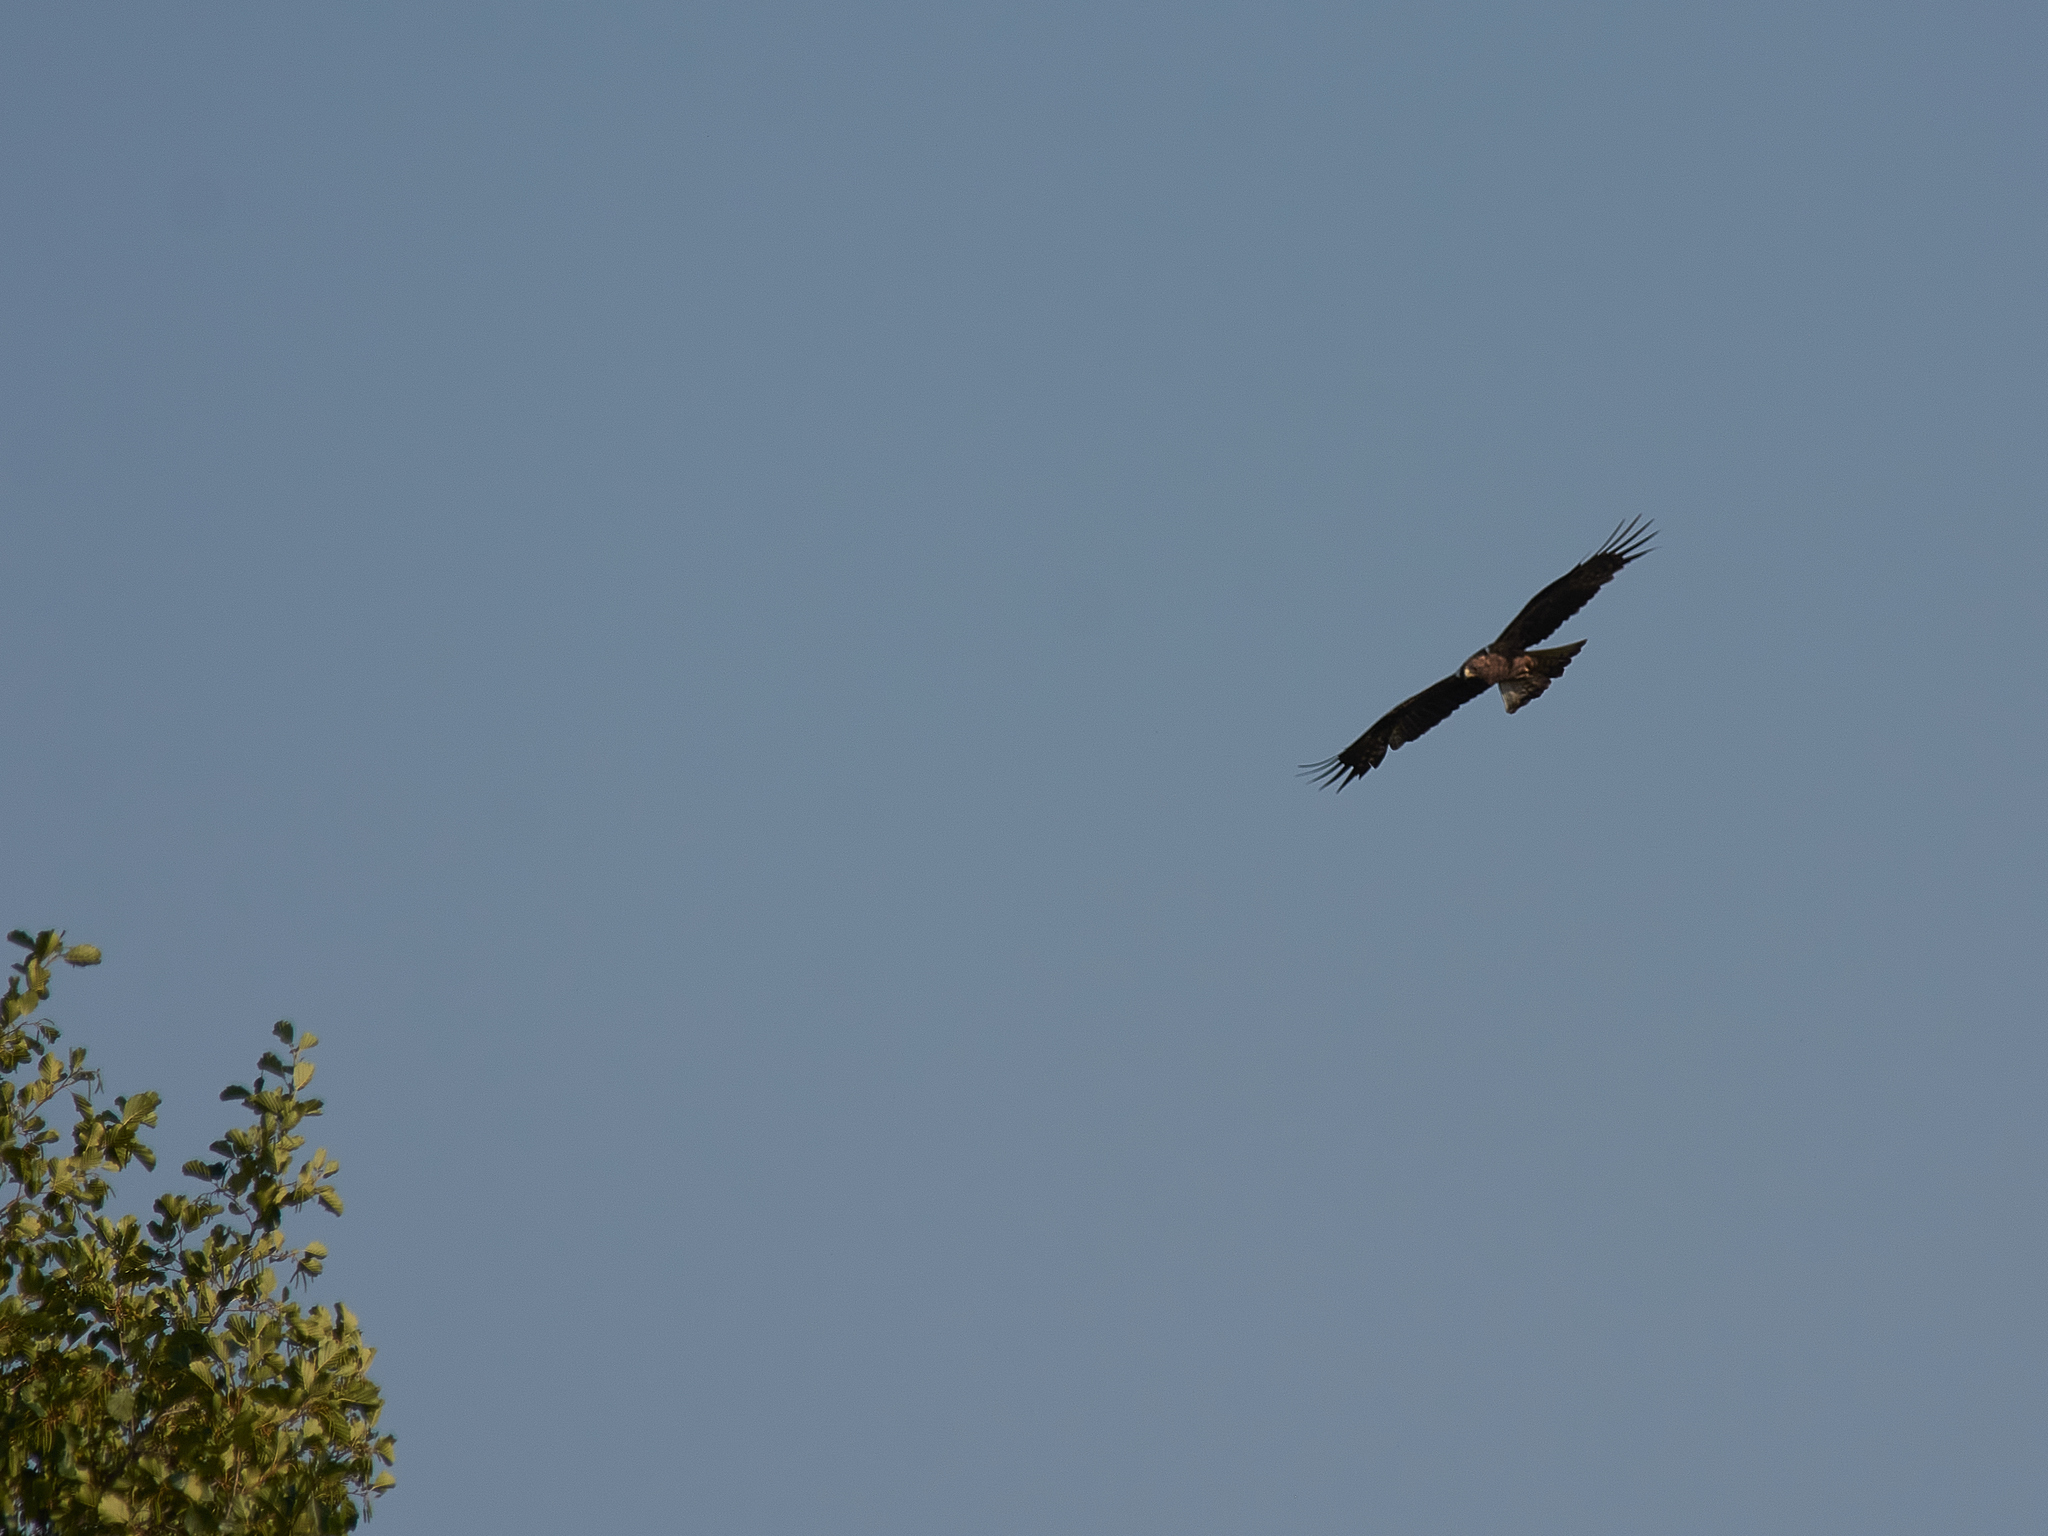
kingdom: Animalia
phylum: Chordata
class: Aves
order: Accipitriformes
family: Accipitridae
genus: Milvus
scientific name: Milvus migrans
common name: Black kite
